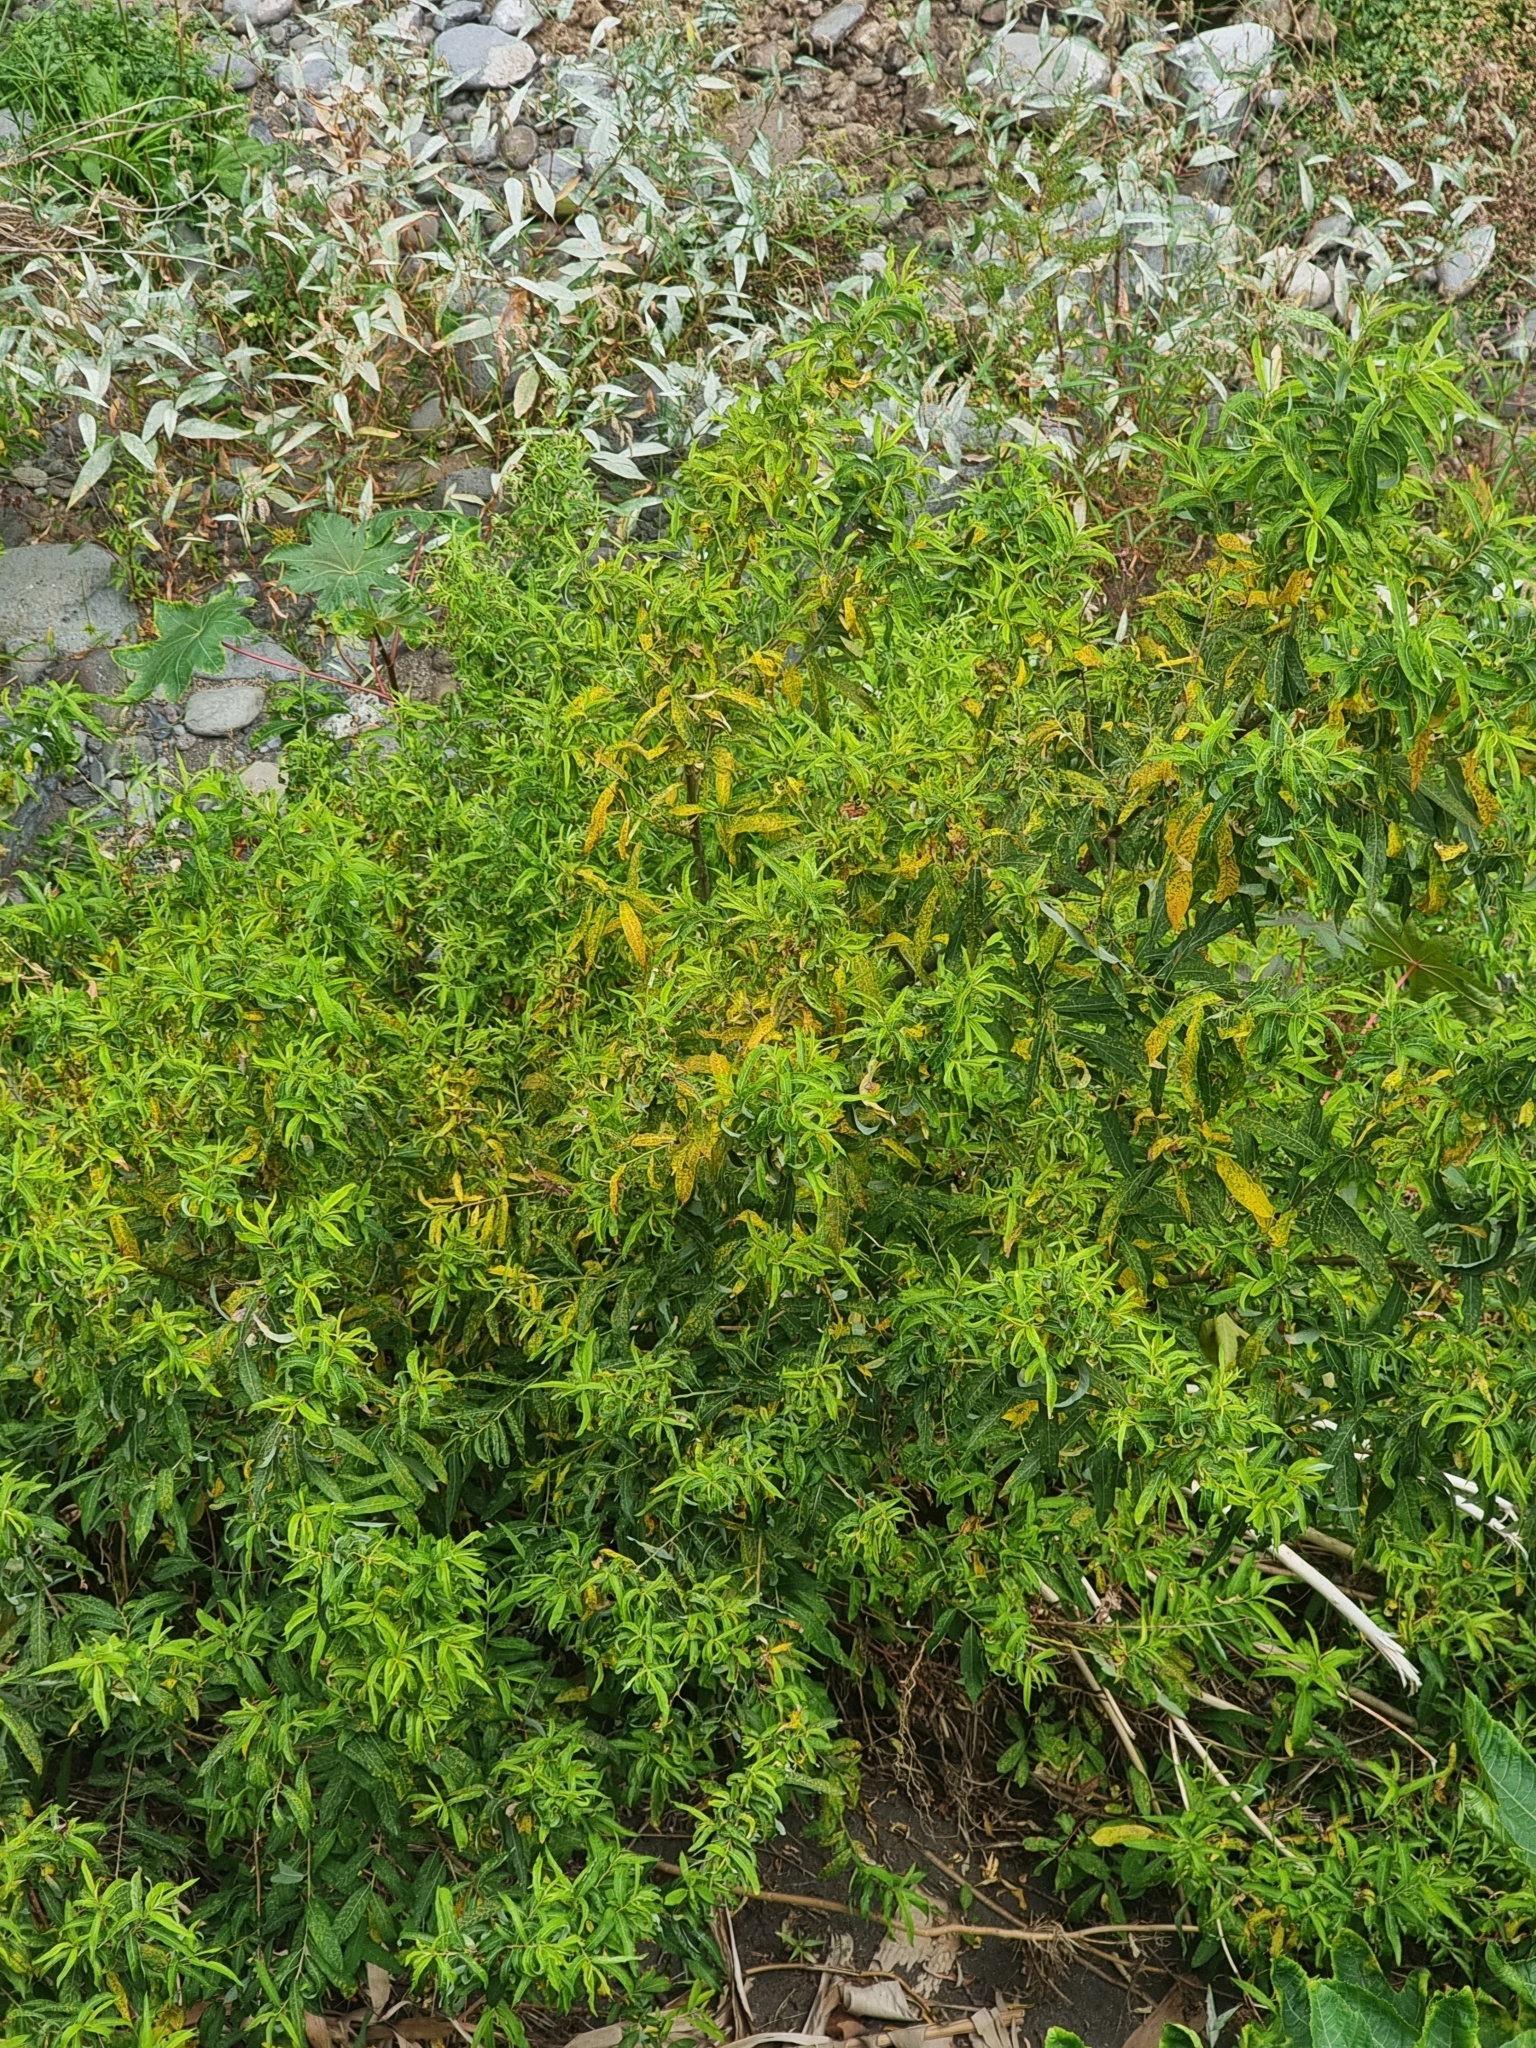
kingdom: Plantae
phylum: Tracheophyta
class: Magnoliopsida
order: Malpighiales
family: Salicaceae
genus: Salix
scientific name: Salix canariensis
